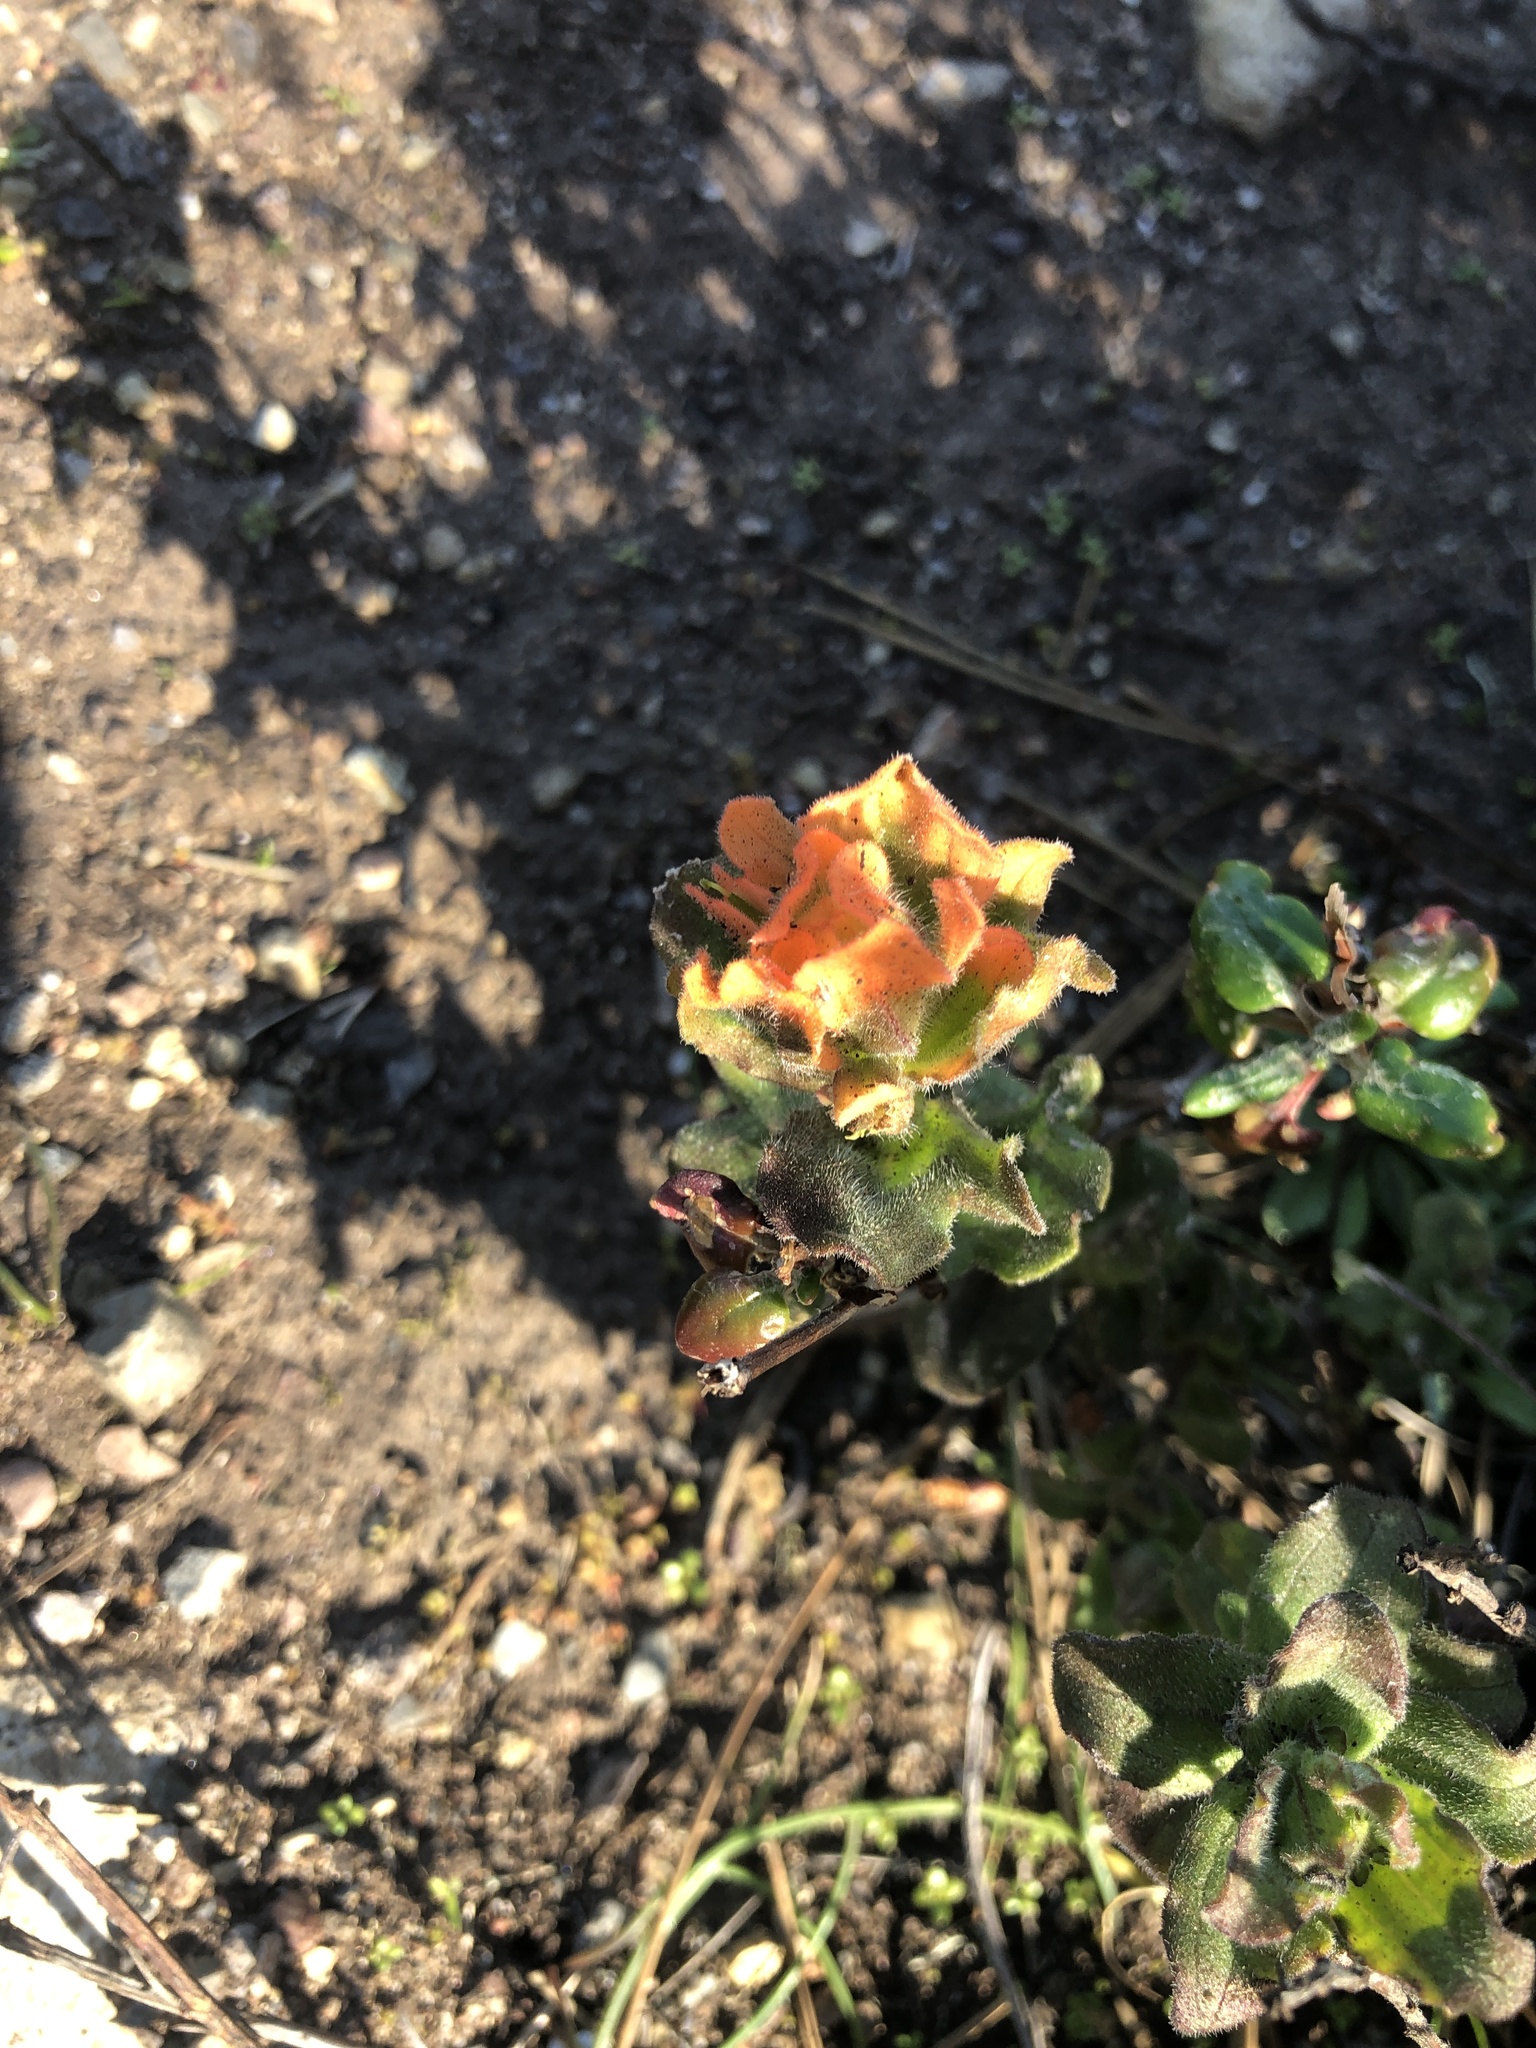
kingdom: Plantae
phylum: Tracheophyta
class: Magnoliopsida
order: Lamiales
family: Orobanchaceae
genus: Castilleja
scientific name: Castilleja latifolia
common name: Monterey indian paintbrush
